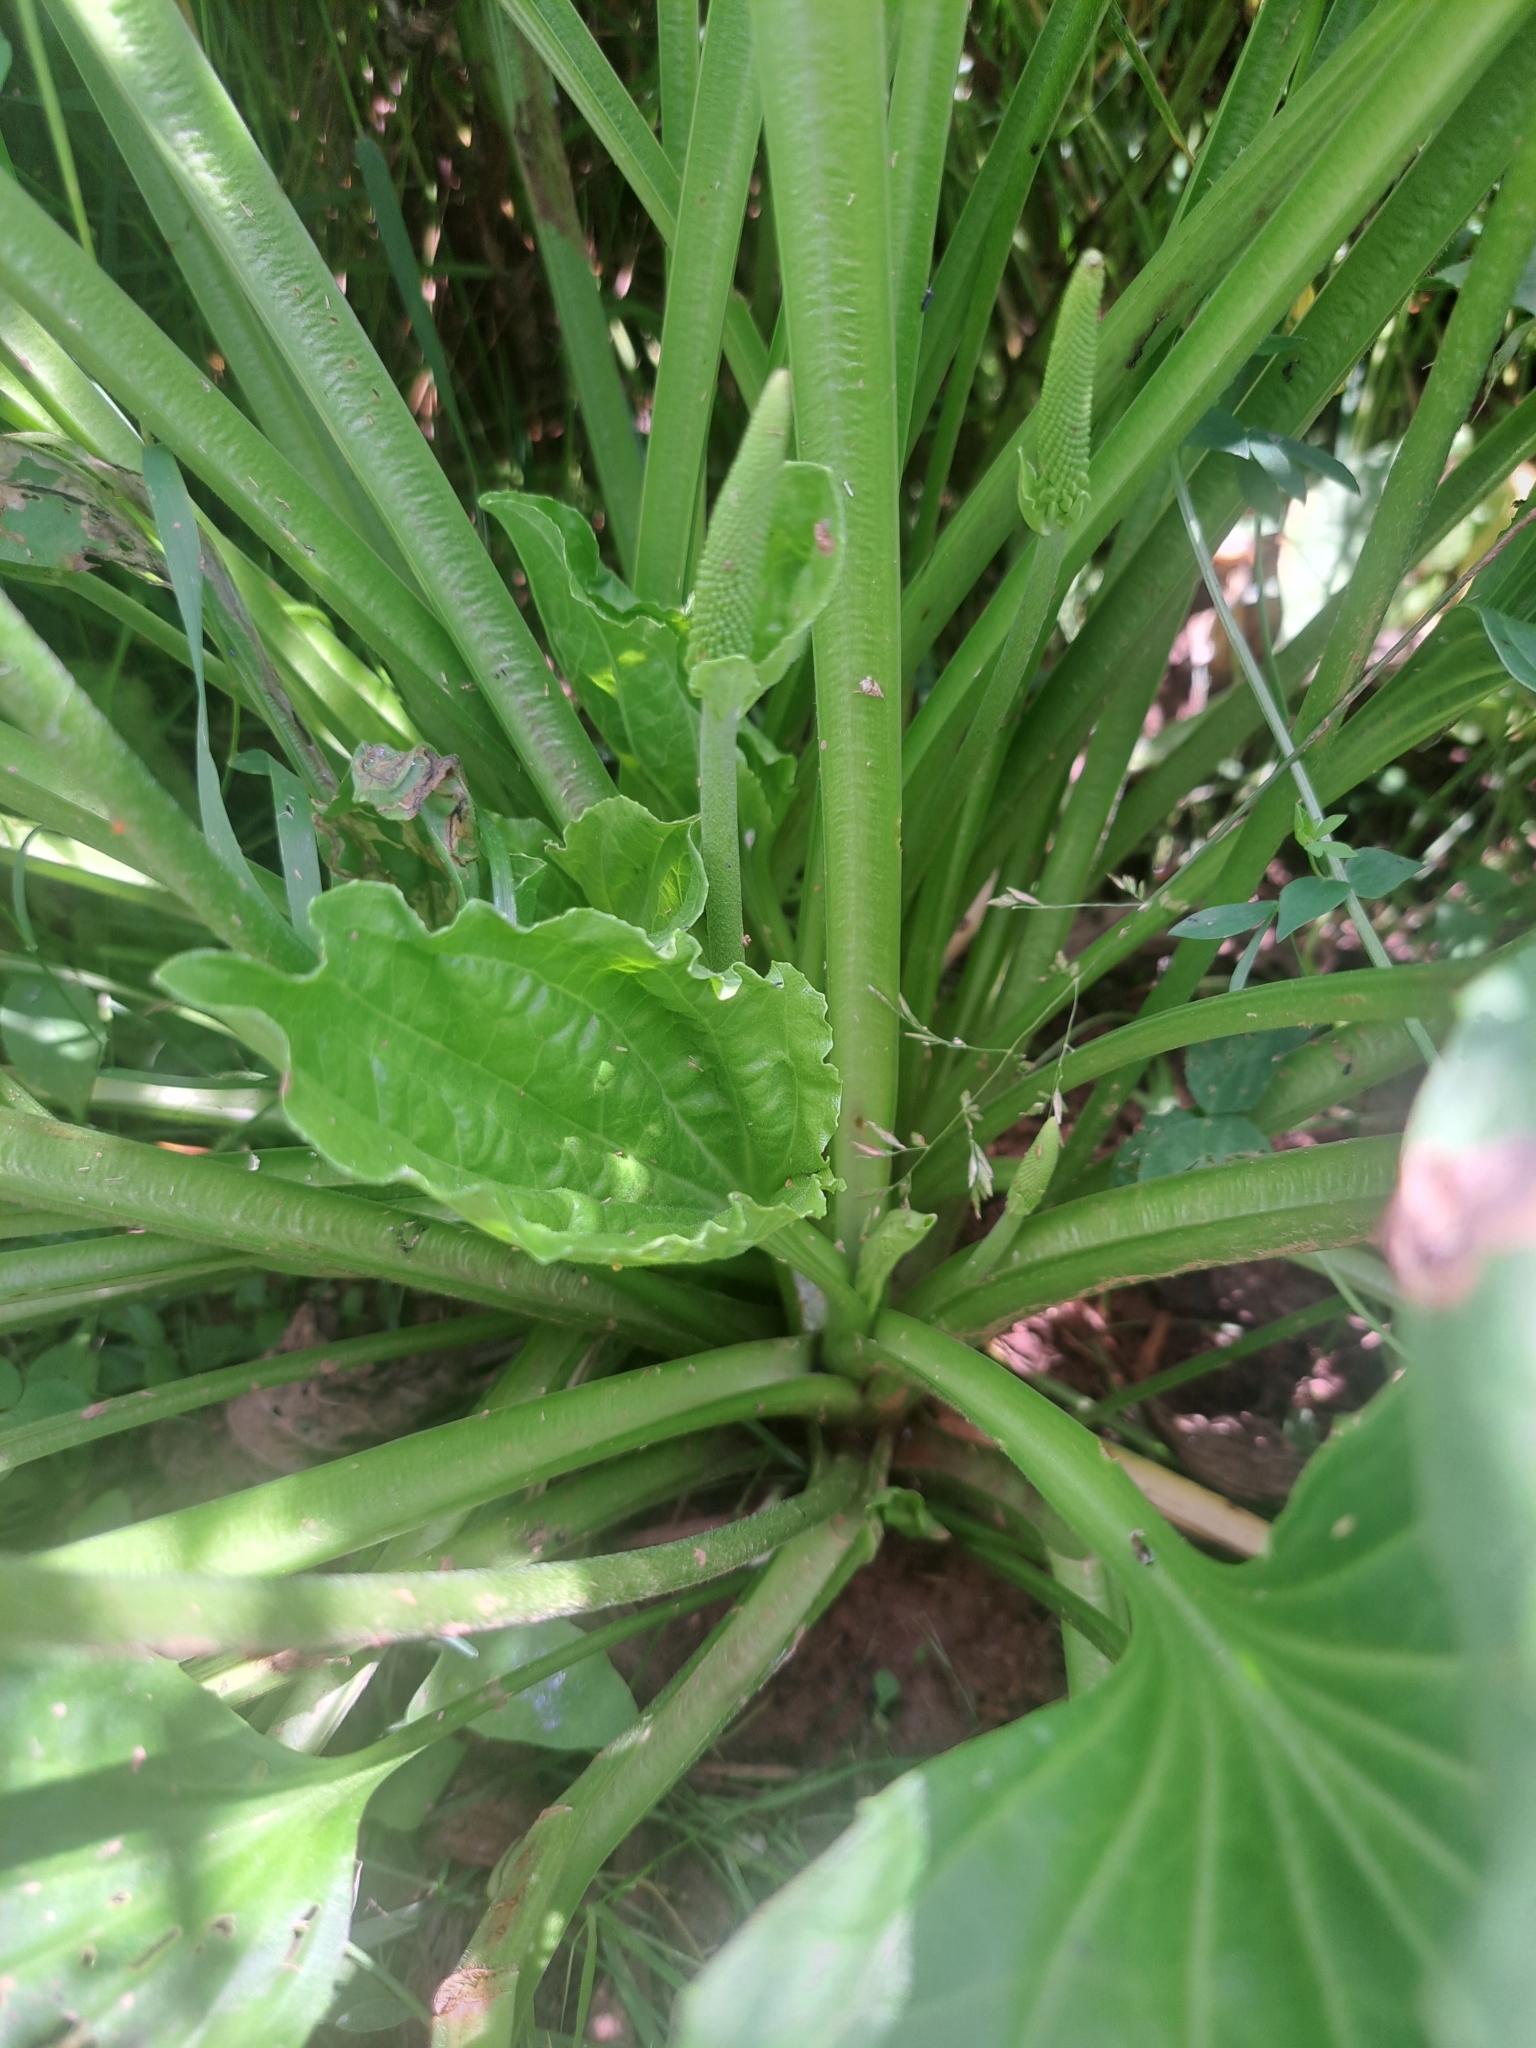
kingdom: Plantae
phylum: Tracheophyta
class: Magnoliopsida
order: Lamiales
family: Plantaginaceae
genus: Plantago
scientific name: Plantago major
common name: Common plantain
